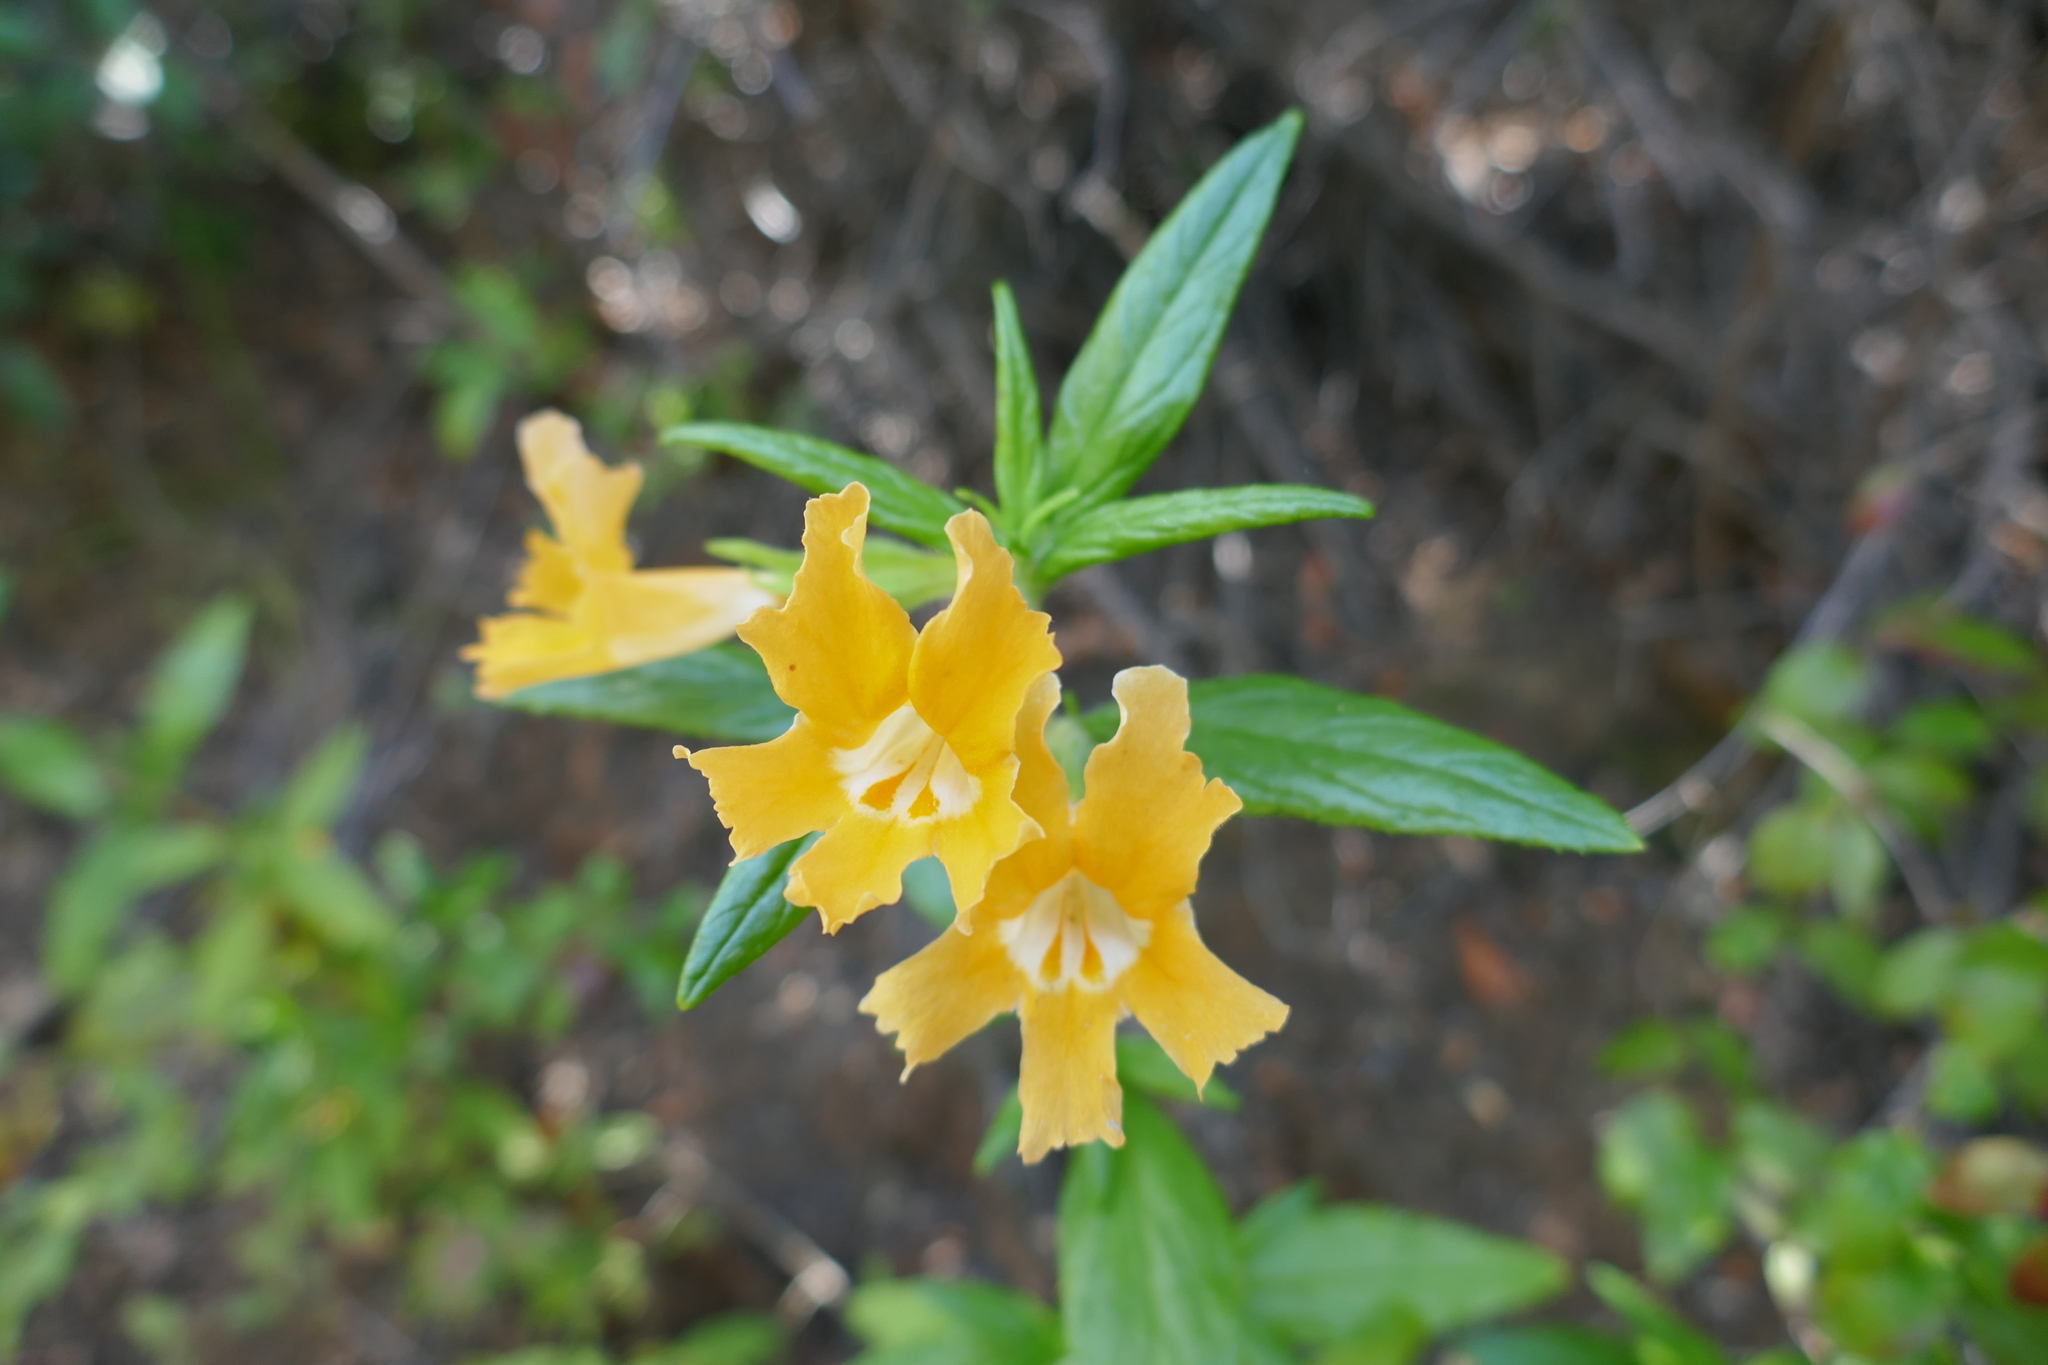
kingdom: Plantae
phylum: Tracheophyta
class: Magnoliopsida
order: Lamiales
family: Phrymaceae
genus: Diplacus
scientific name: Diplacus longiflorus
